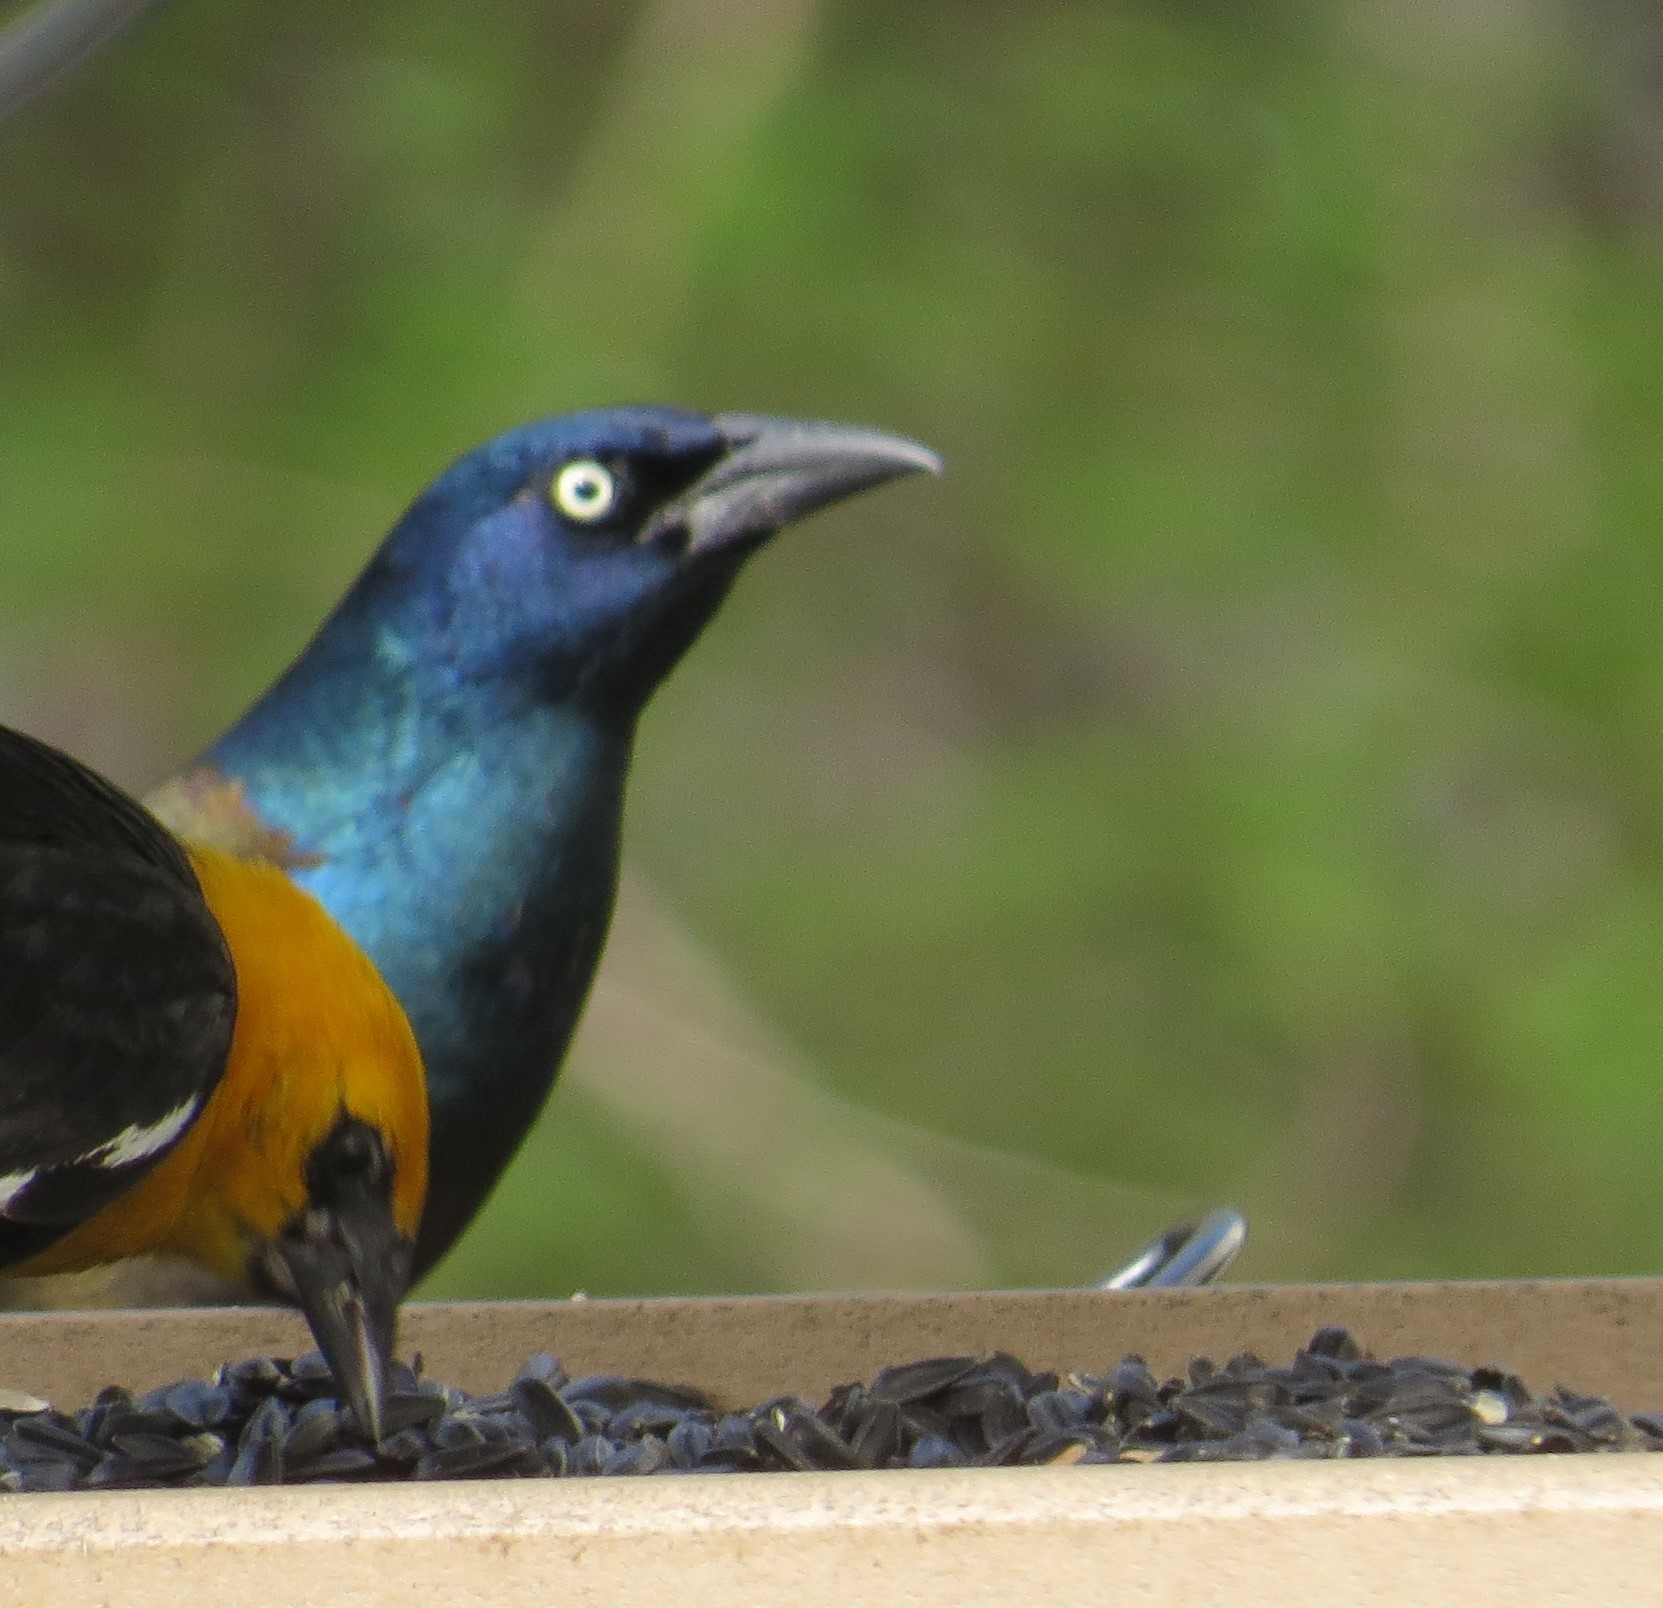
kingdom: Animalia
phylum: Chordata
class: Aves
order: Passeriformes
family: Icteridae
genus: Quiscalus
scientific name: Quiscalus quiscula
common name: Common grackle
